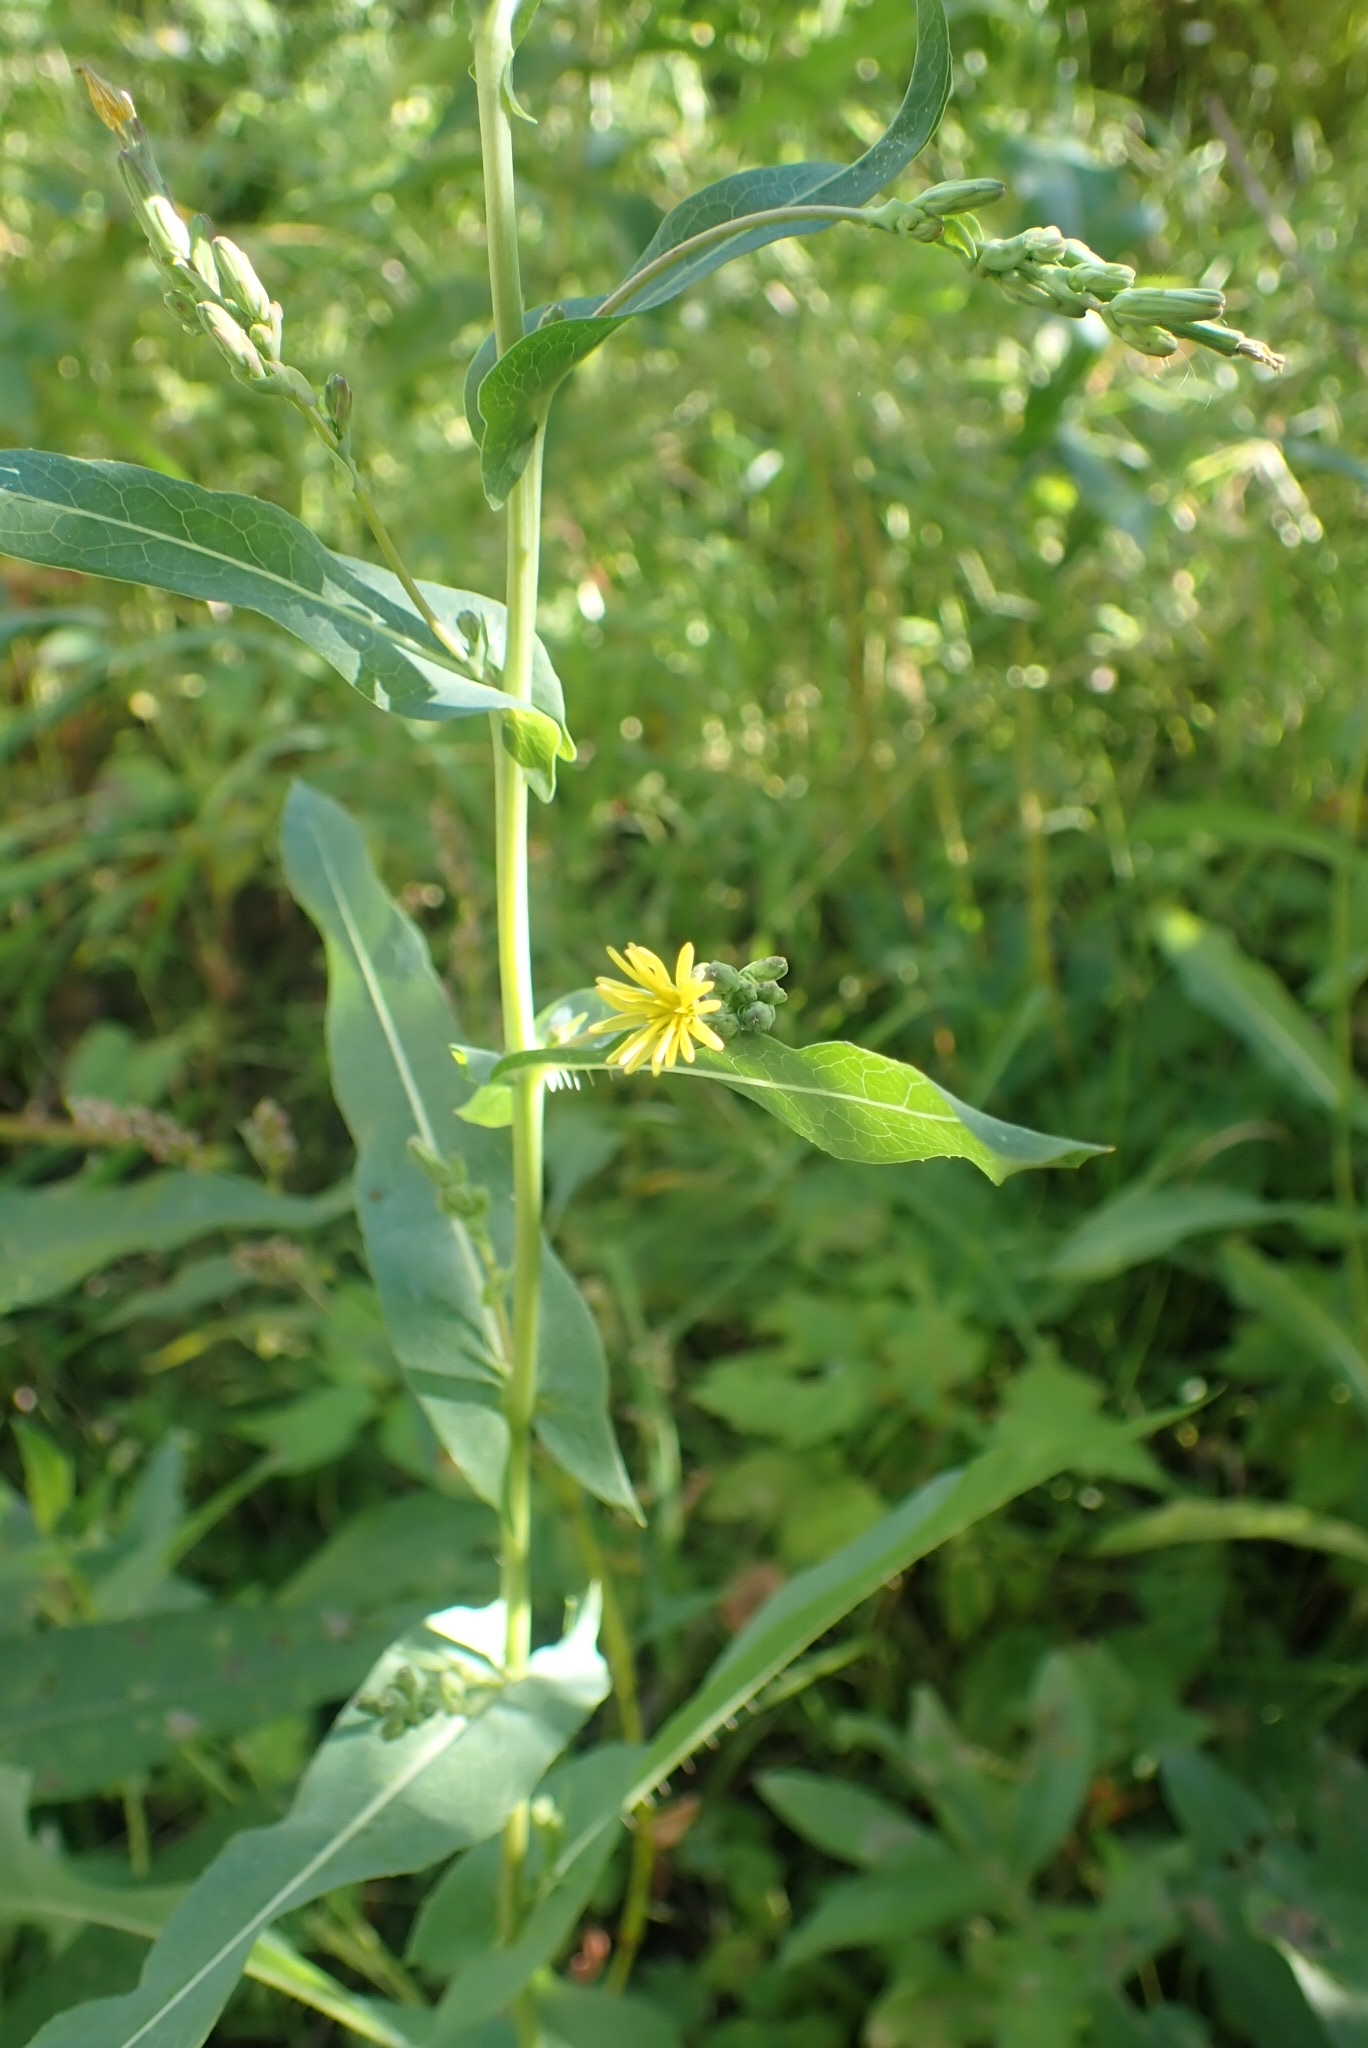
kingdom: Plantae
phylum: Tracheophyta
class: Magnoliopsida
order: Asterales
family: Asteraceae
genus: Lactuca
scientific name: Lactuca serriola
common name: Prickly lettuce
